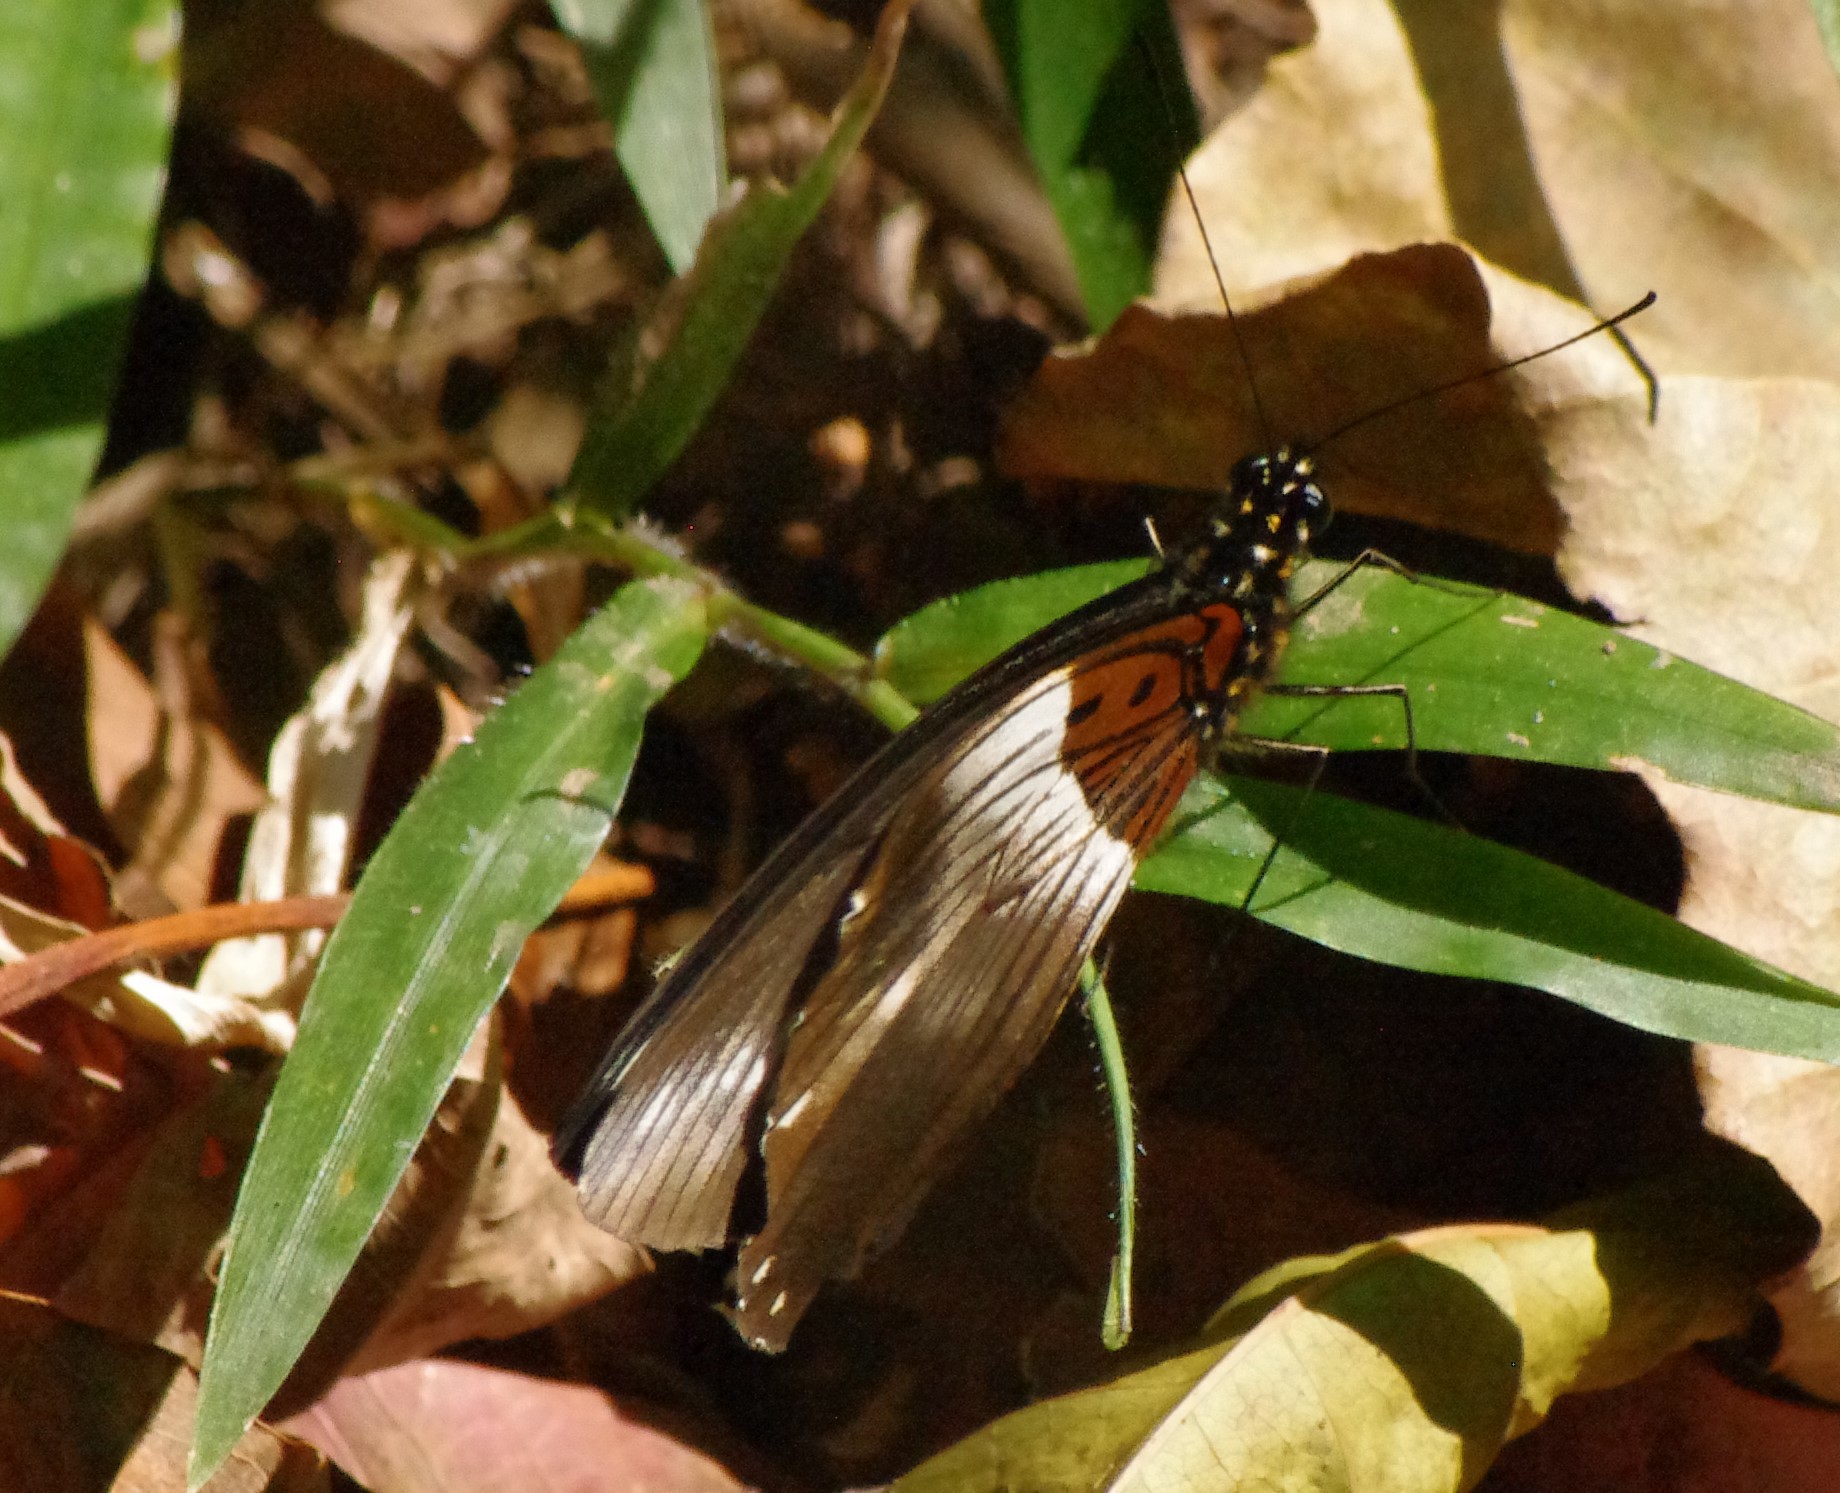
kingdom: Animalia
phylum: Arthropoda
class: Insecta
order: Lepidoptera
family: Papilionidae
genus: Papilio
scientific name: Papilio echerioides
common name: White-banded swallowtail
